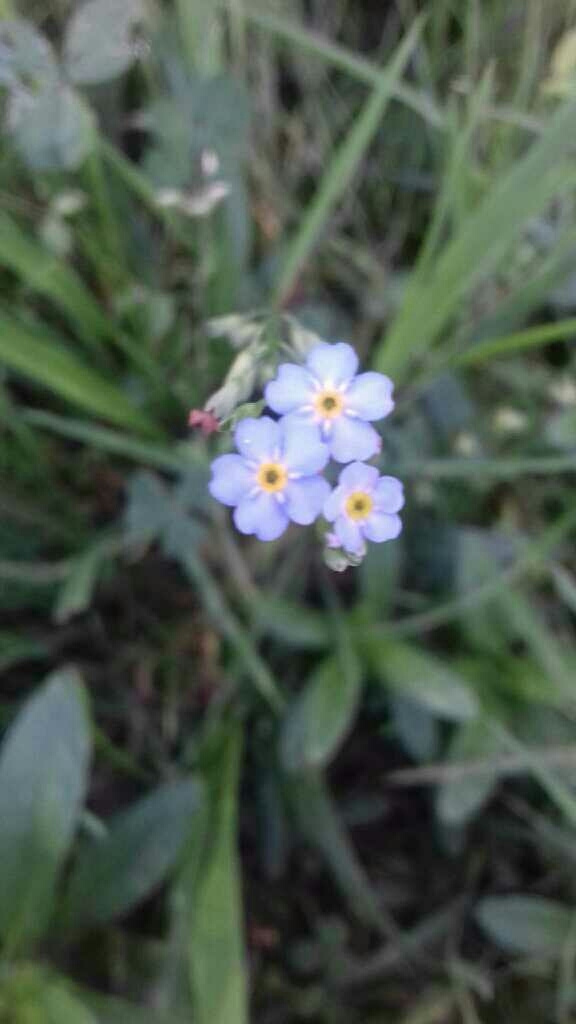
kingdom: Plantae
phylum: Tracheophyta
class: Magnoliopsida
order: Boraginales
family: Boraginaceae
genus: Myosotis
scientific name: Myosotis scorpioides
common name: Water forget-me-not
